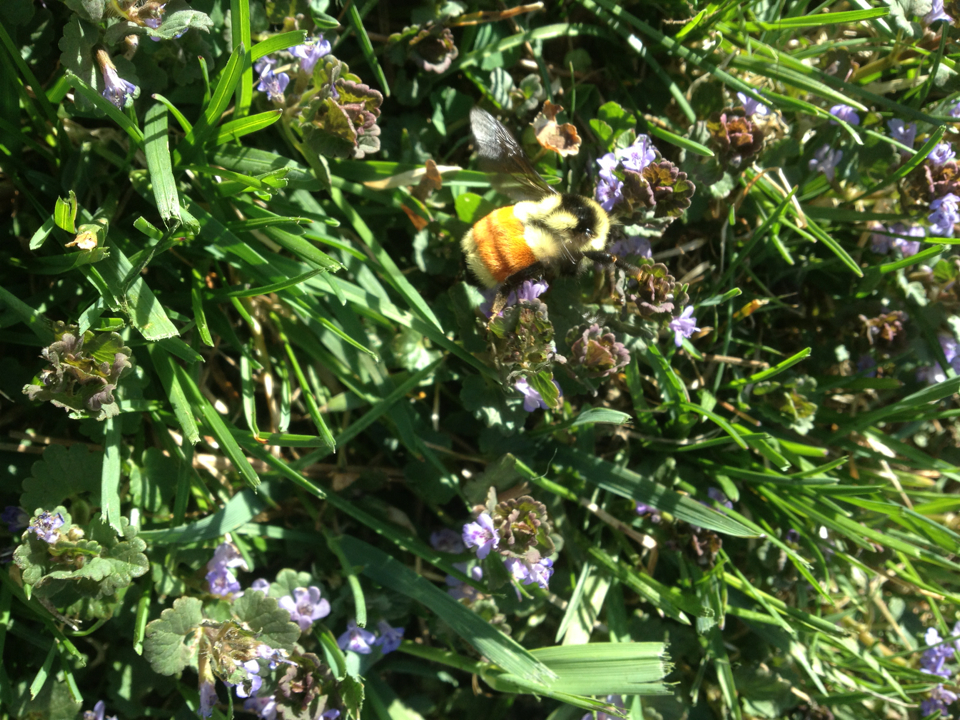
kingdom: Animalia
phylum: Arthropoda
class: Insecta
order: Hymenoptera
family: Apidae
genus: Bombus
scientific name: Bombus ternarius
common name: Tri-colored bumble bee
